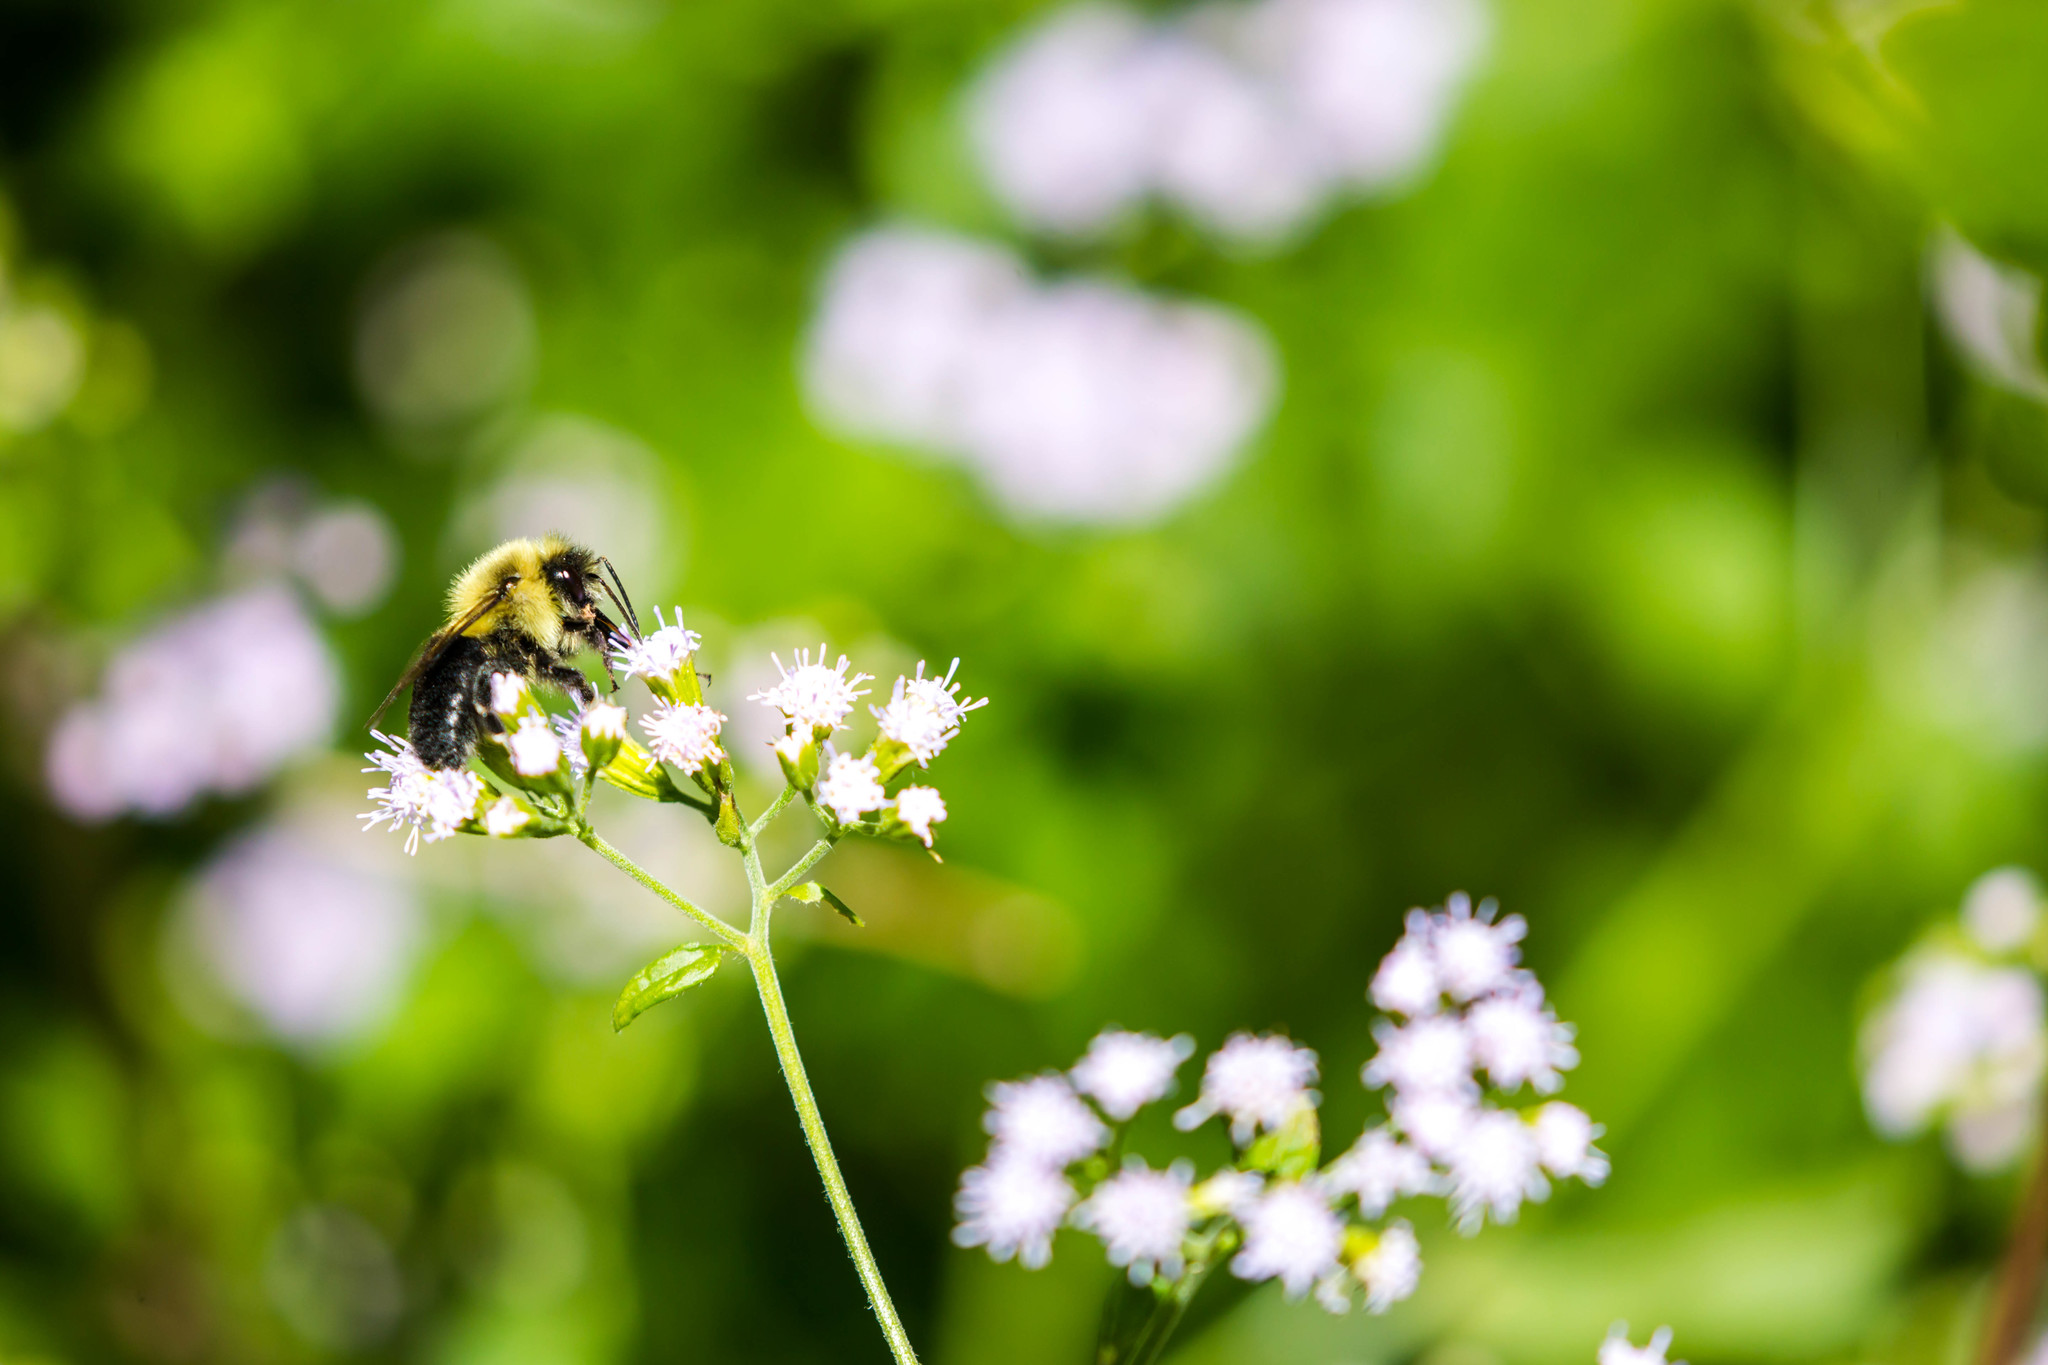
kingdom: Animalia
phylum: Arthropoda
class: Insecta
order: Hymenoptera
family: Apidae
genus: Bombus
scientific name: Bombus impatiens
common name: Common eastern bumble bee
